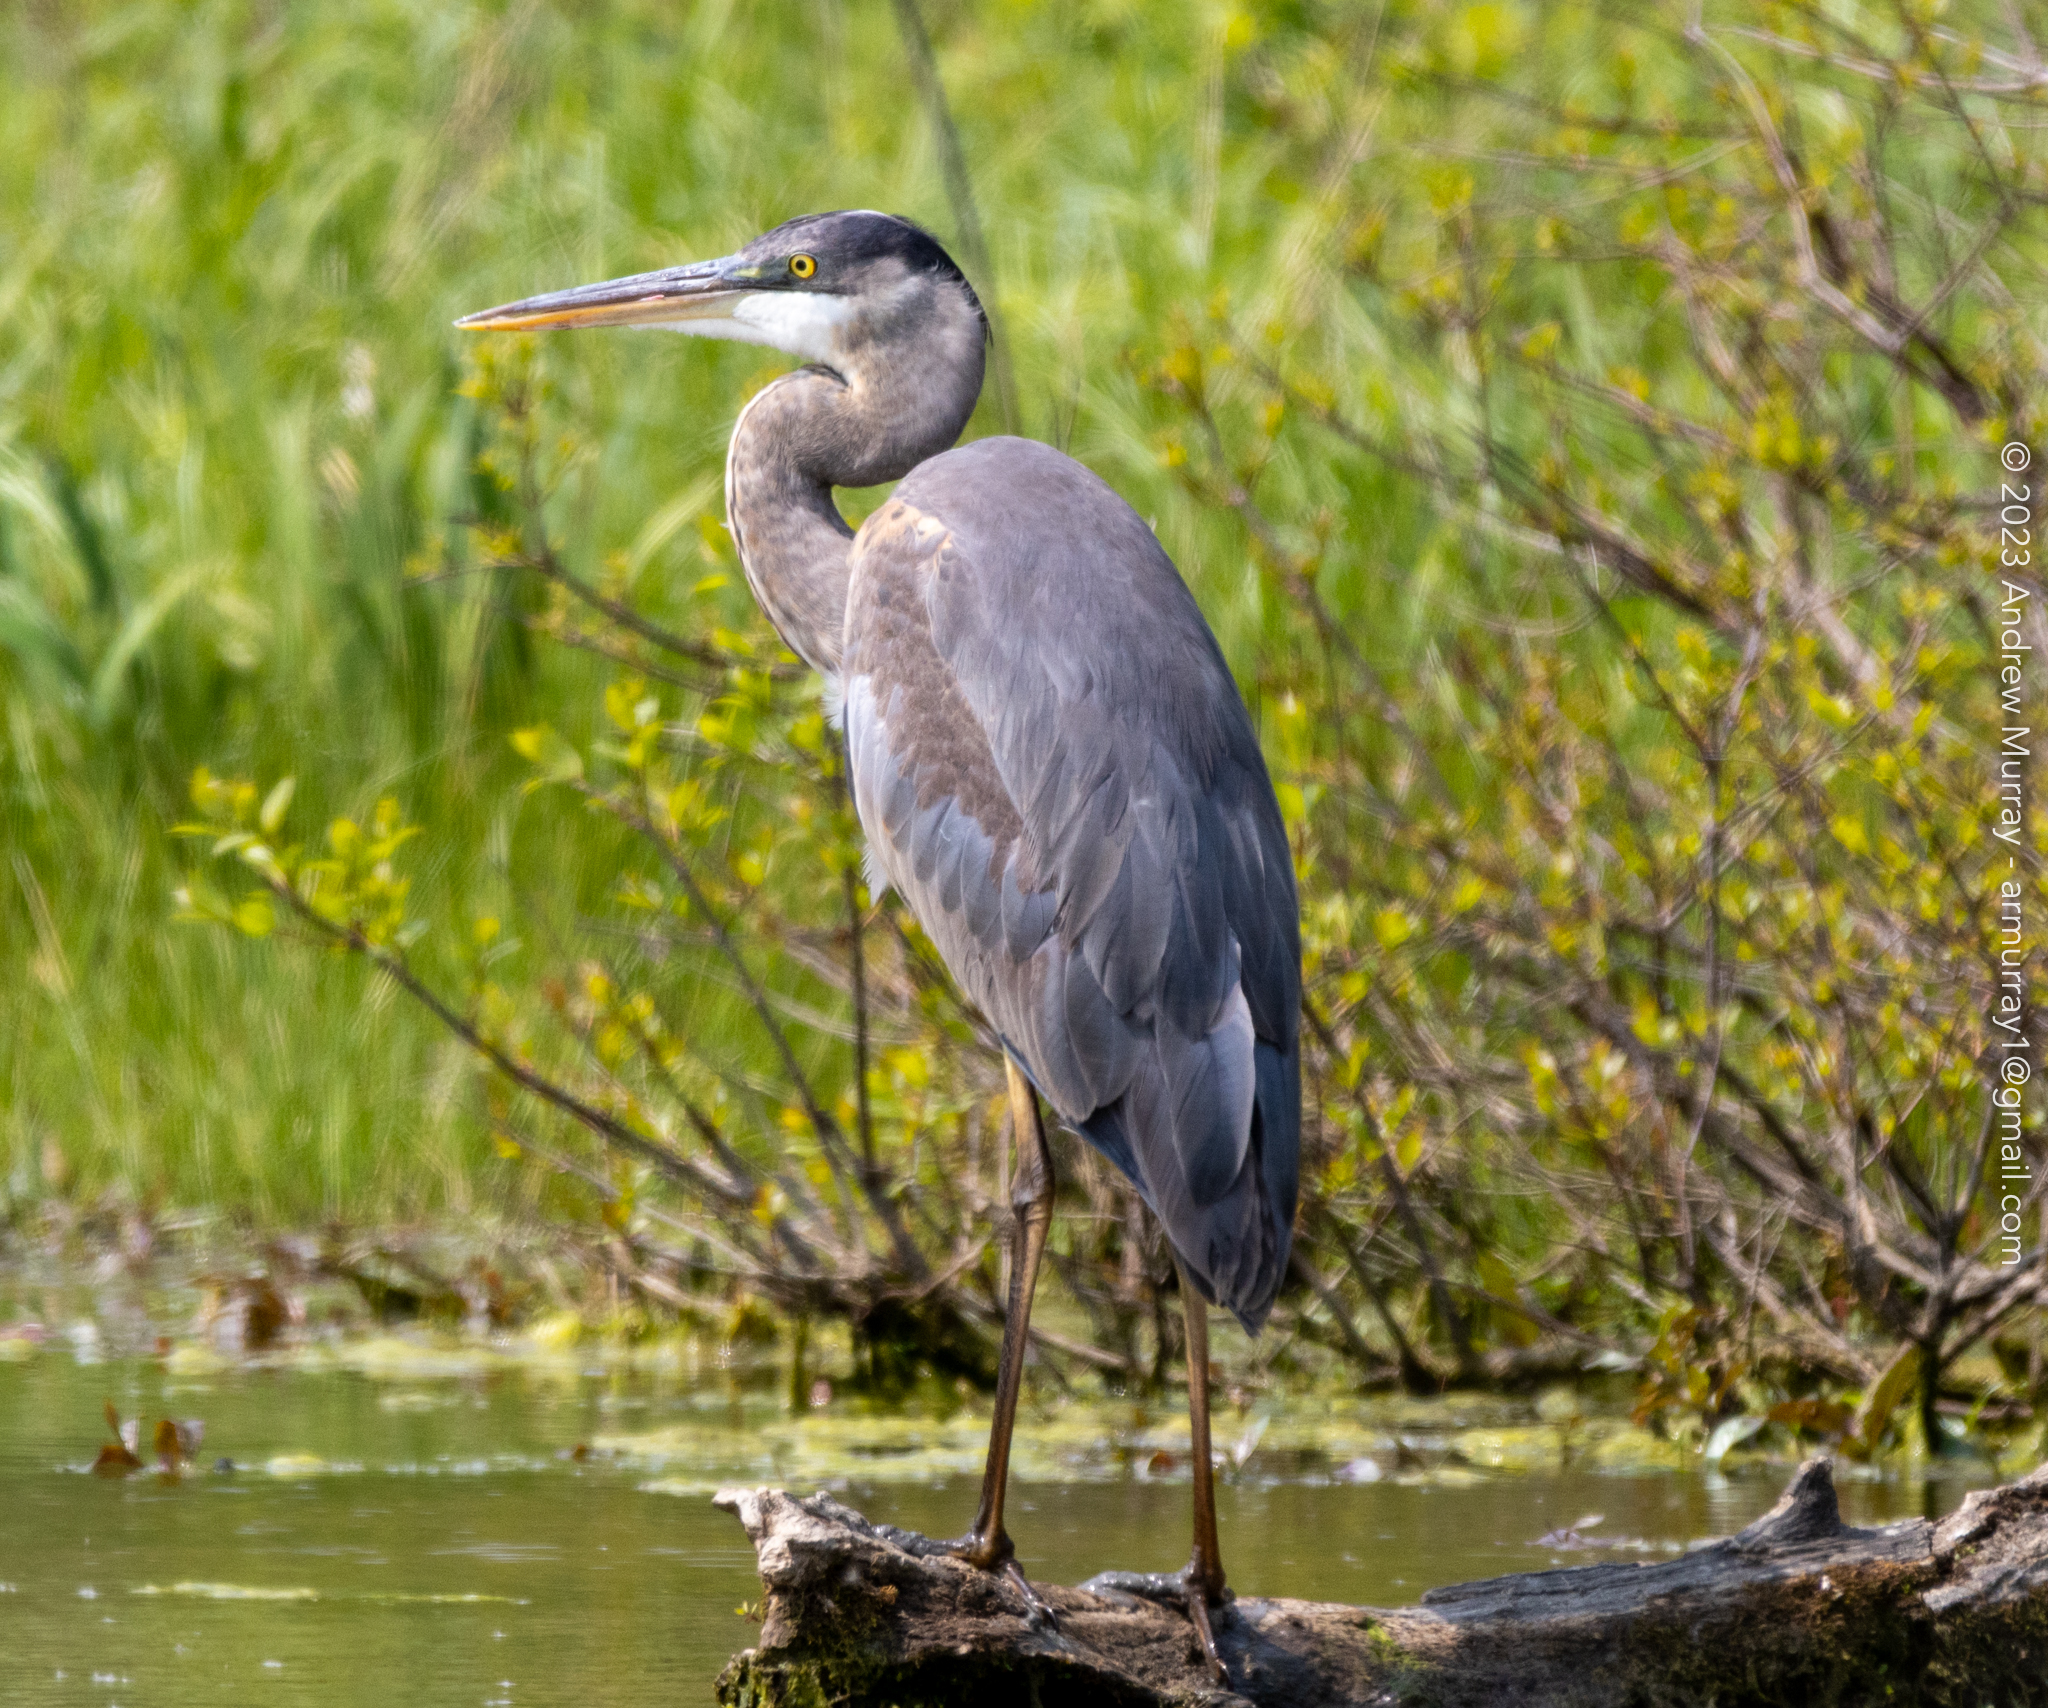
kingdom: Animalia
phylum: Chordata
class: Aves
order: Pelecaniformes
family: Ardeidae
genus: Ardea
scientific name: Ardea herodias
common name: Great blue heron
